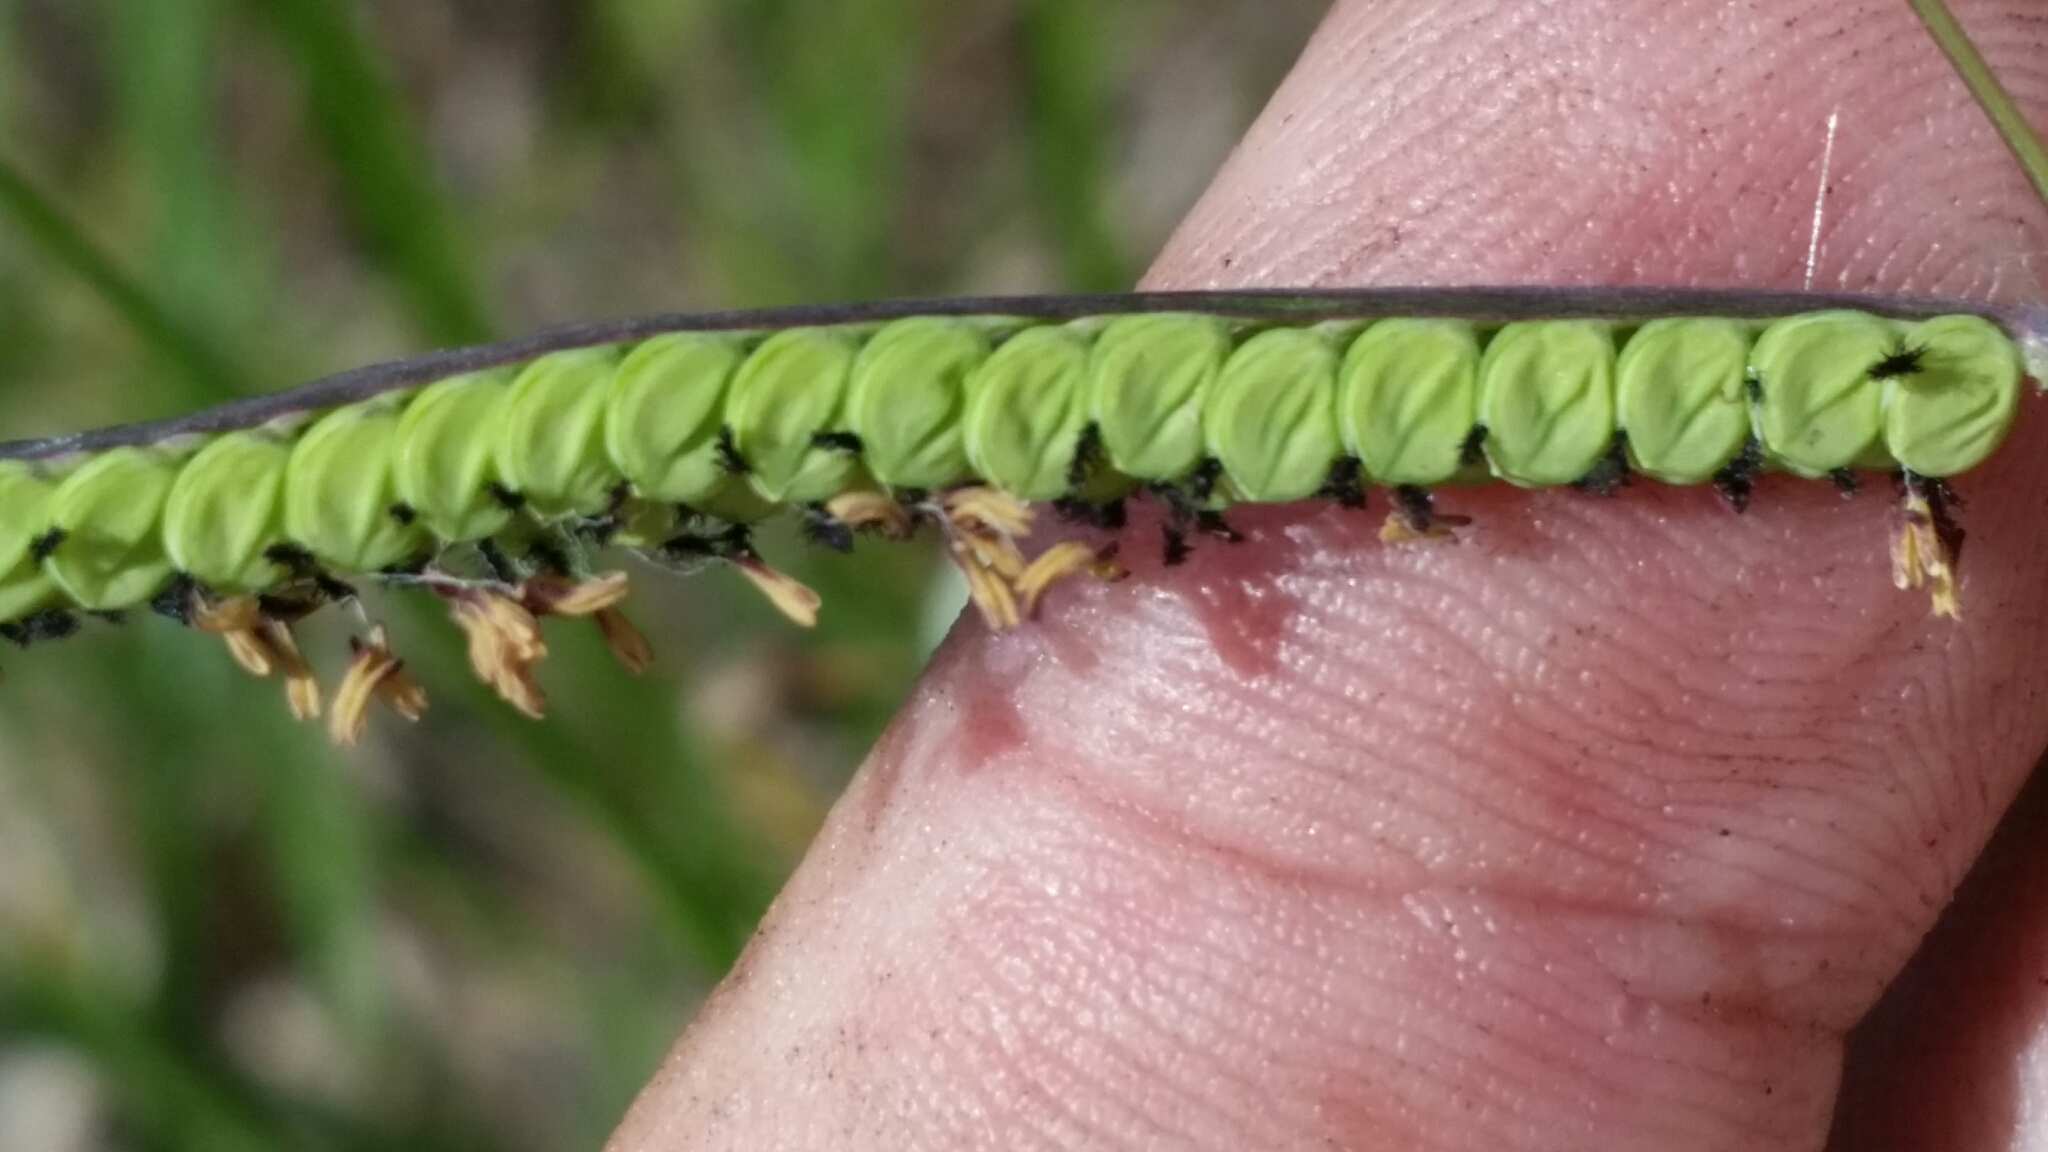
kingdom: Plantae
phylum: Tracheophyta
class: Liliopsida
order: Poales
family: Poaceae
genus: Paspalum
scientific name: Paspalum praecox
